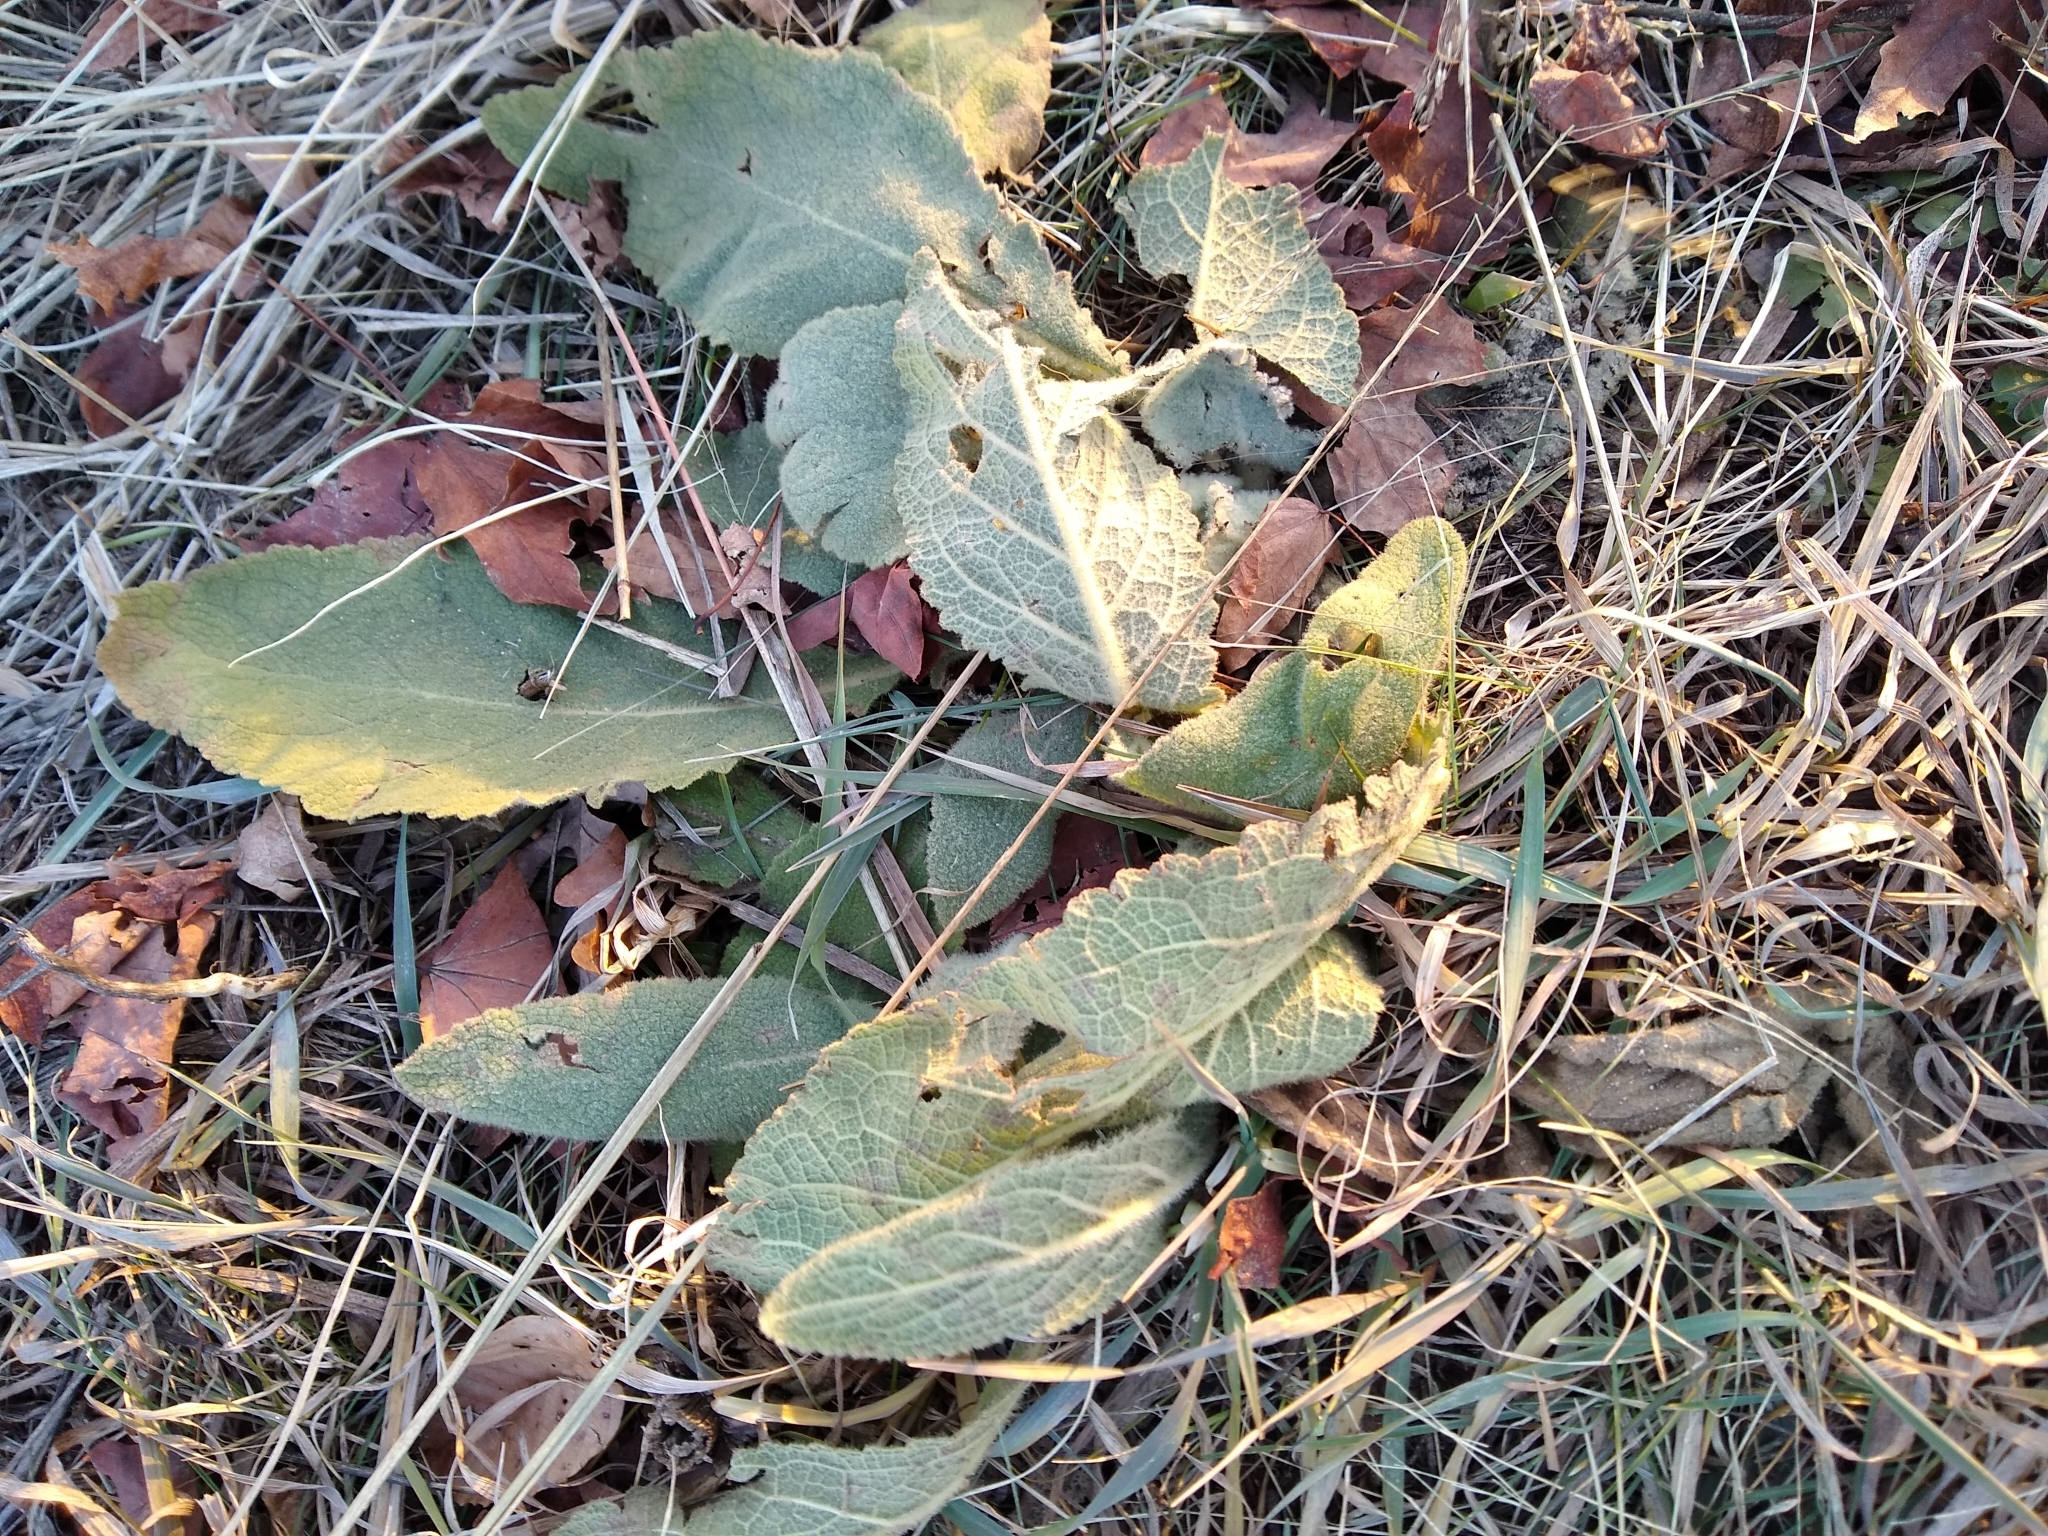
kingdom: Plantae
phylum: Tracheophyta
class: Magnoliopsida
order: Lamiales
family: Scrophulariaceae
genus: Verbascum
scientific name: Verbascum thapsus
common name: Common mullein
